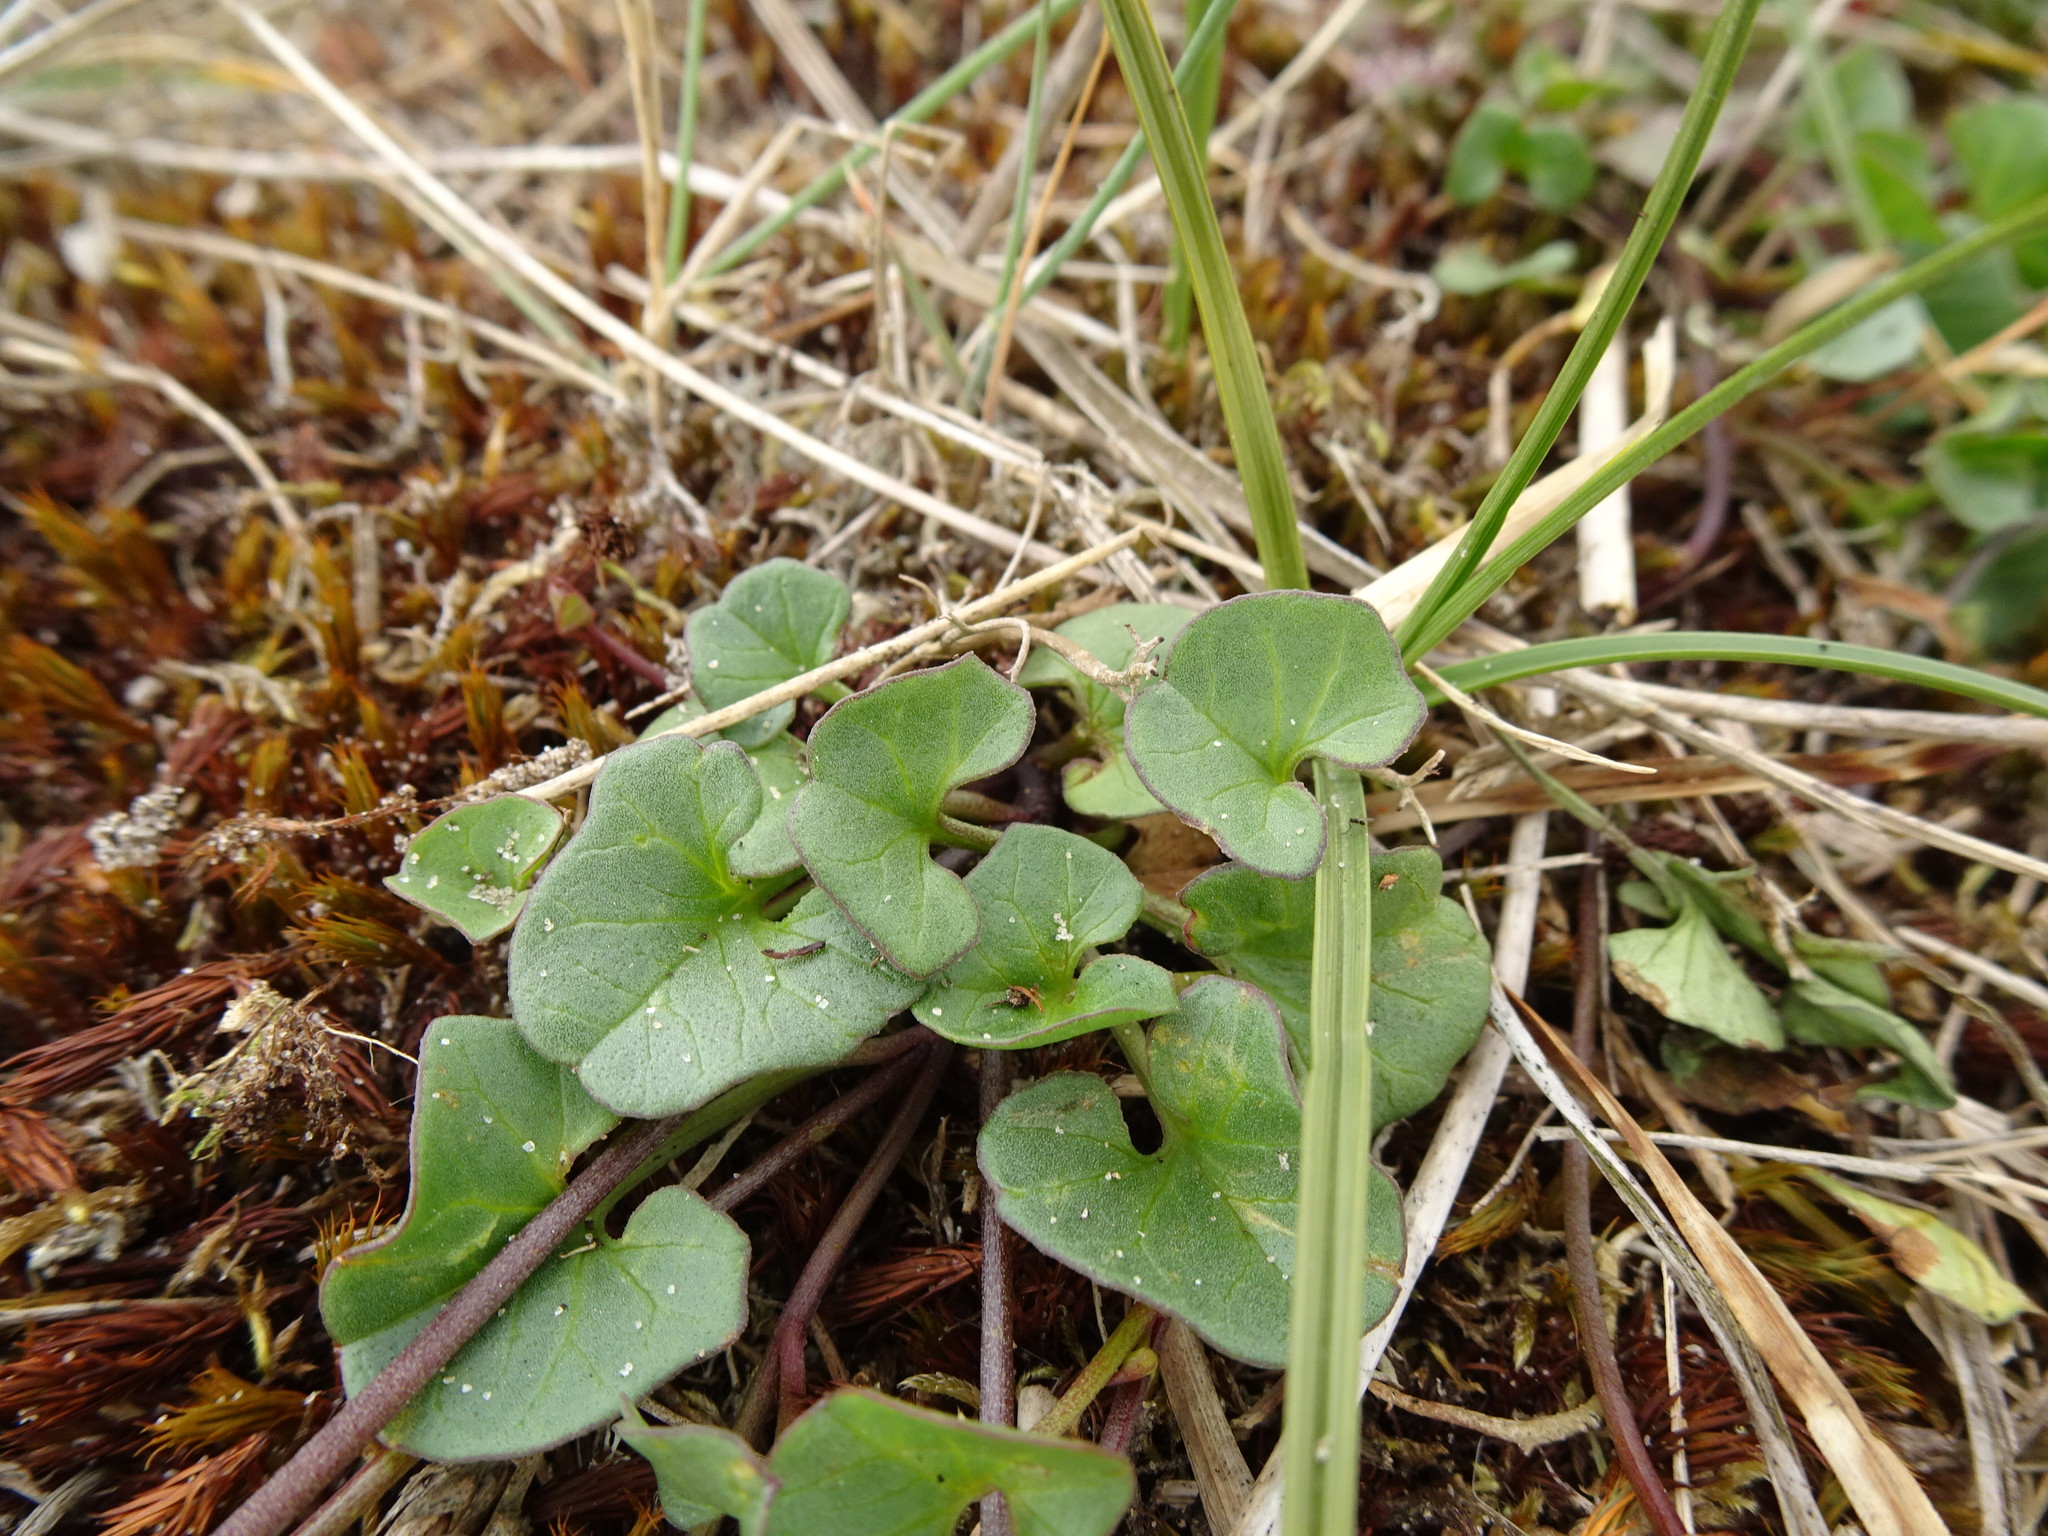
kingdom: Plantae
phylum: Tracheophyta
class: Magnoliopsida
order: Solanales
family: Convolvulaceae
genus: Calystegia
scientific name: Calystegia soldanella
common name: Sea bindweed
